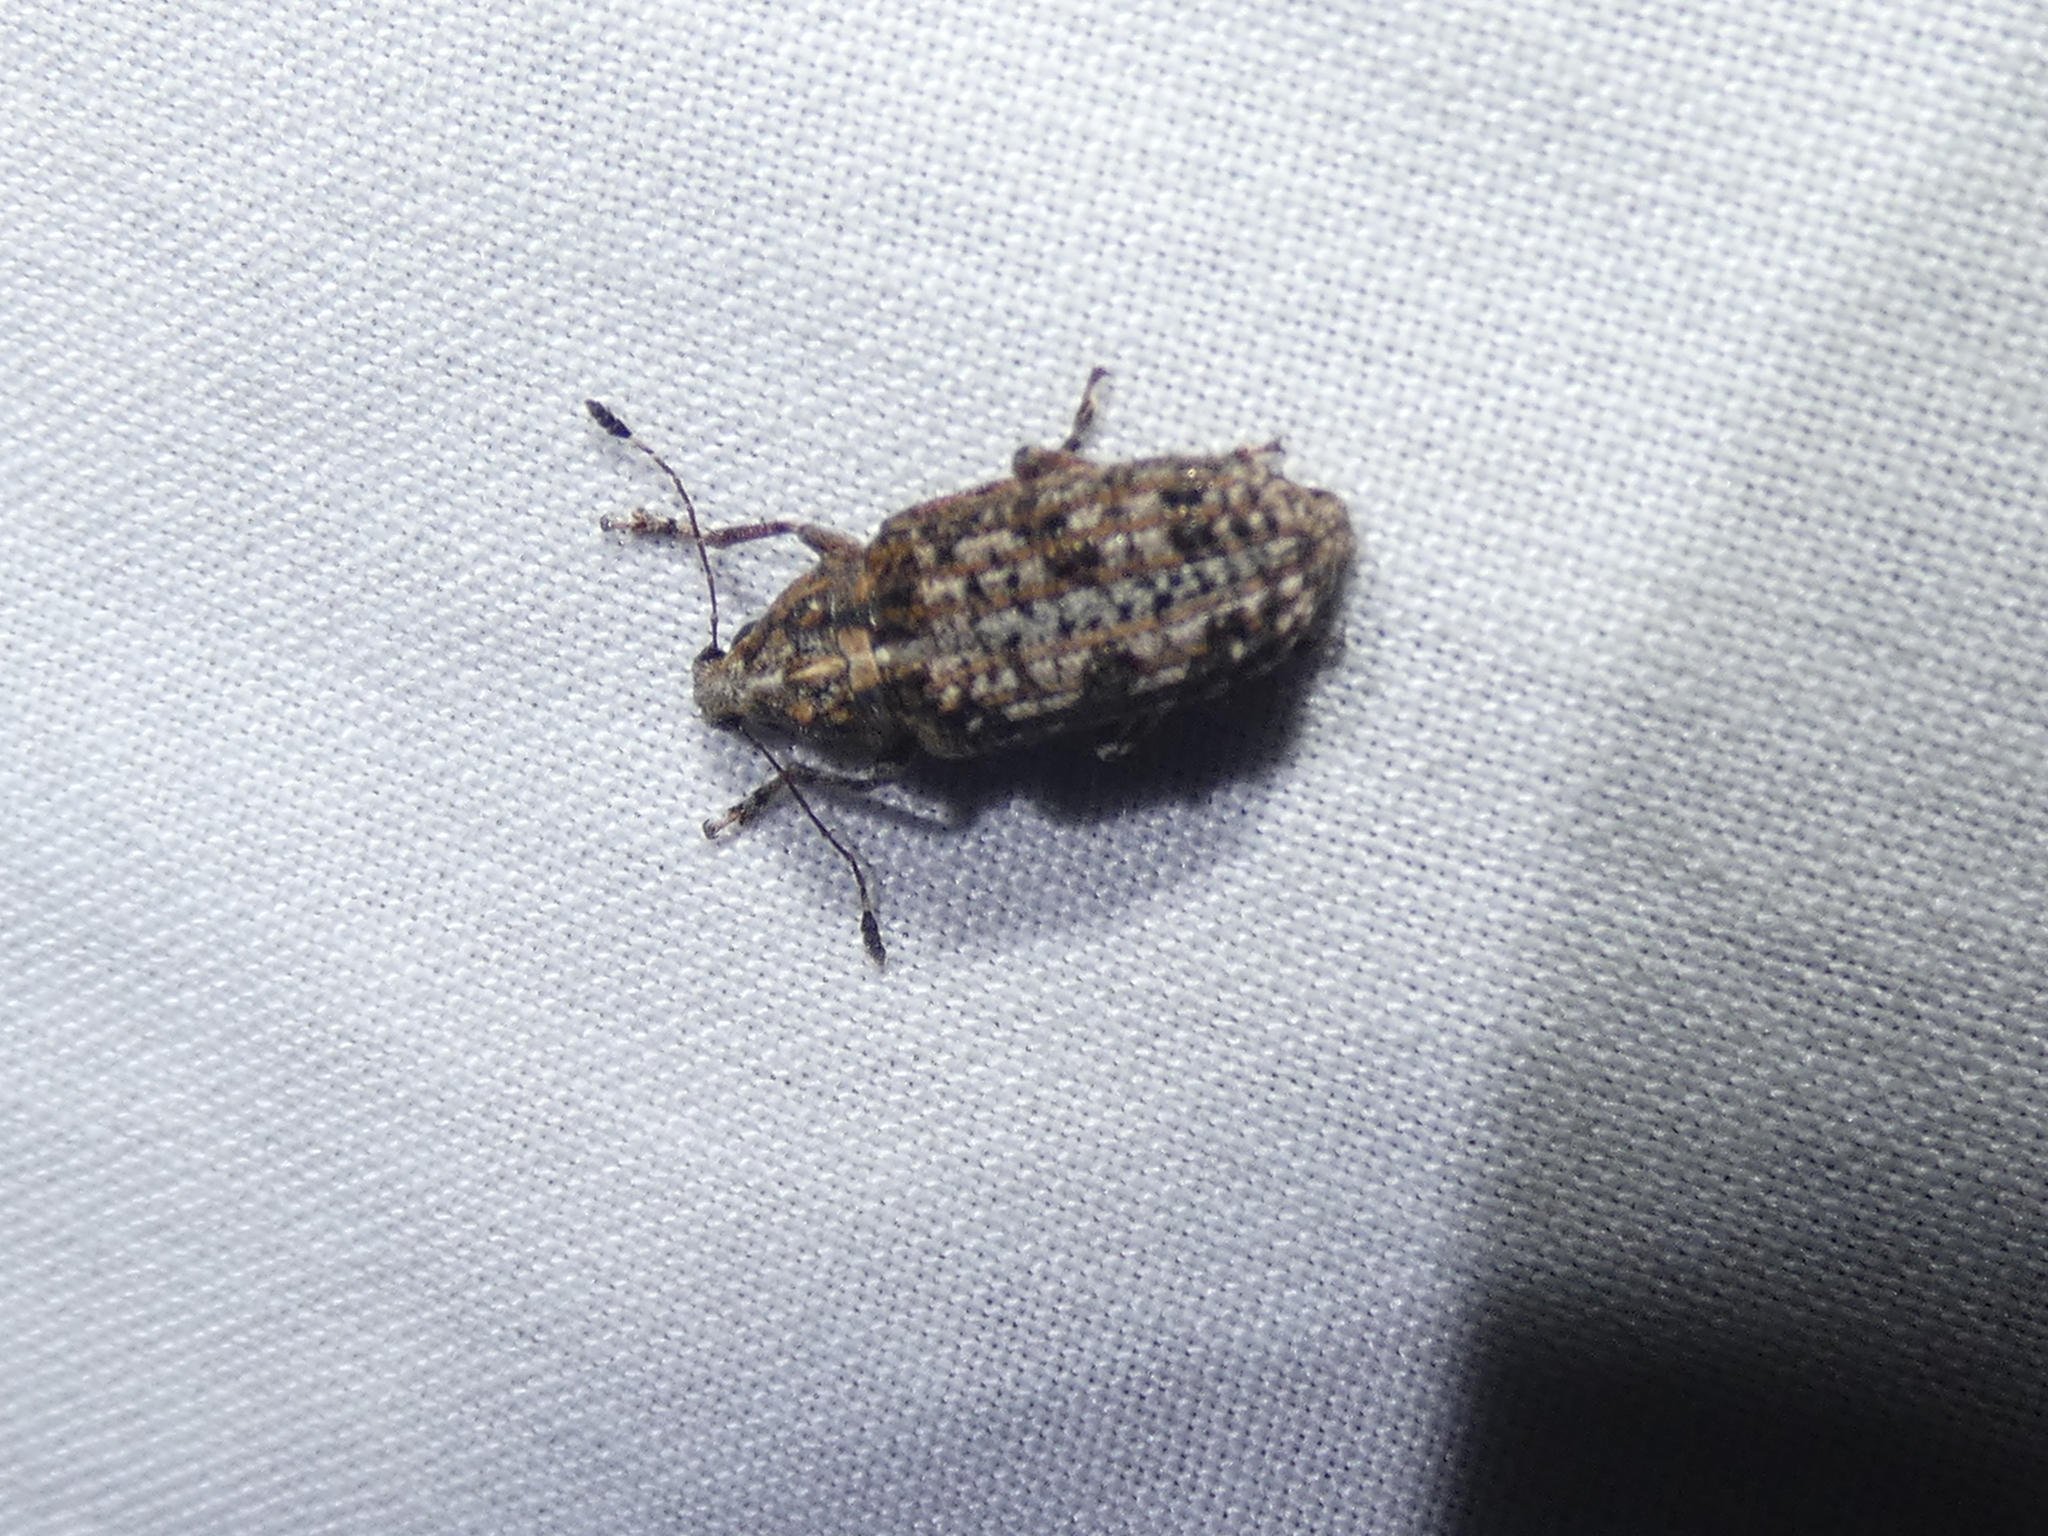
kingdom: Animalia
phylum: Arthropoda
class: Insecta
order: Coleoptera
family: Anthribidae
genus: Meconemus
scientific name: Meconemus infuscatus
